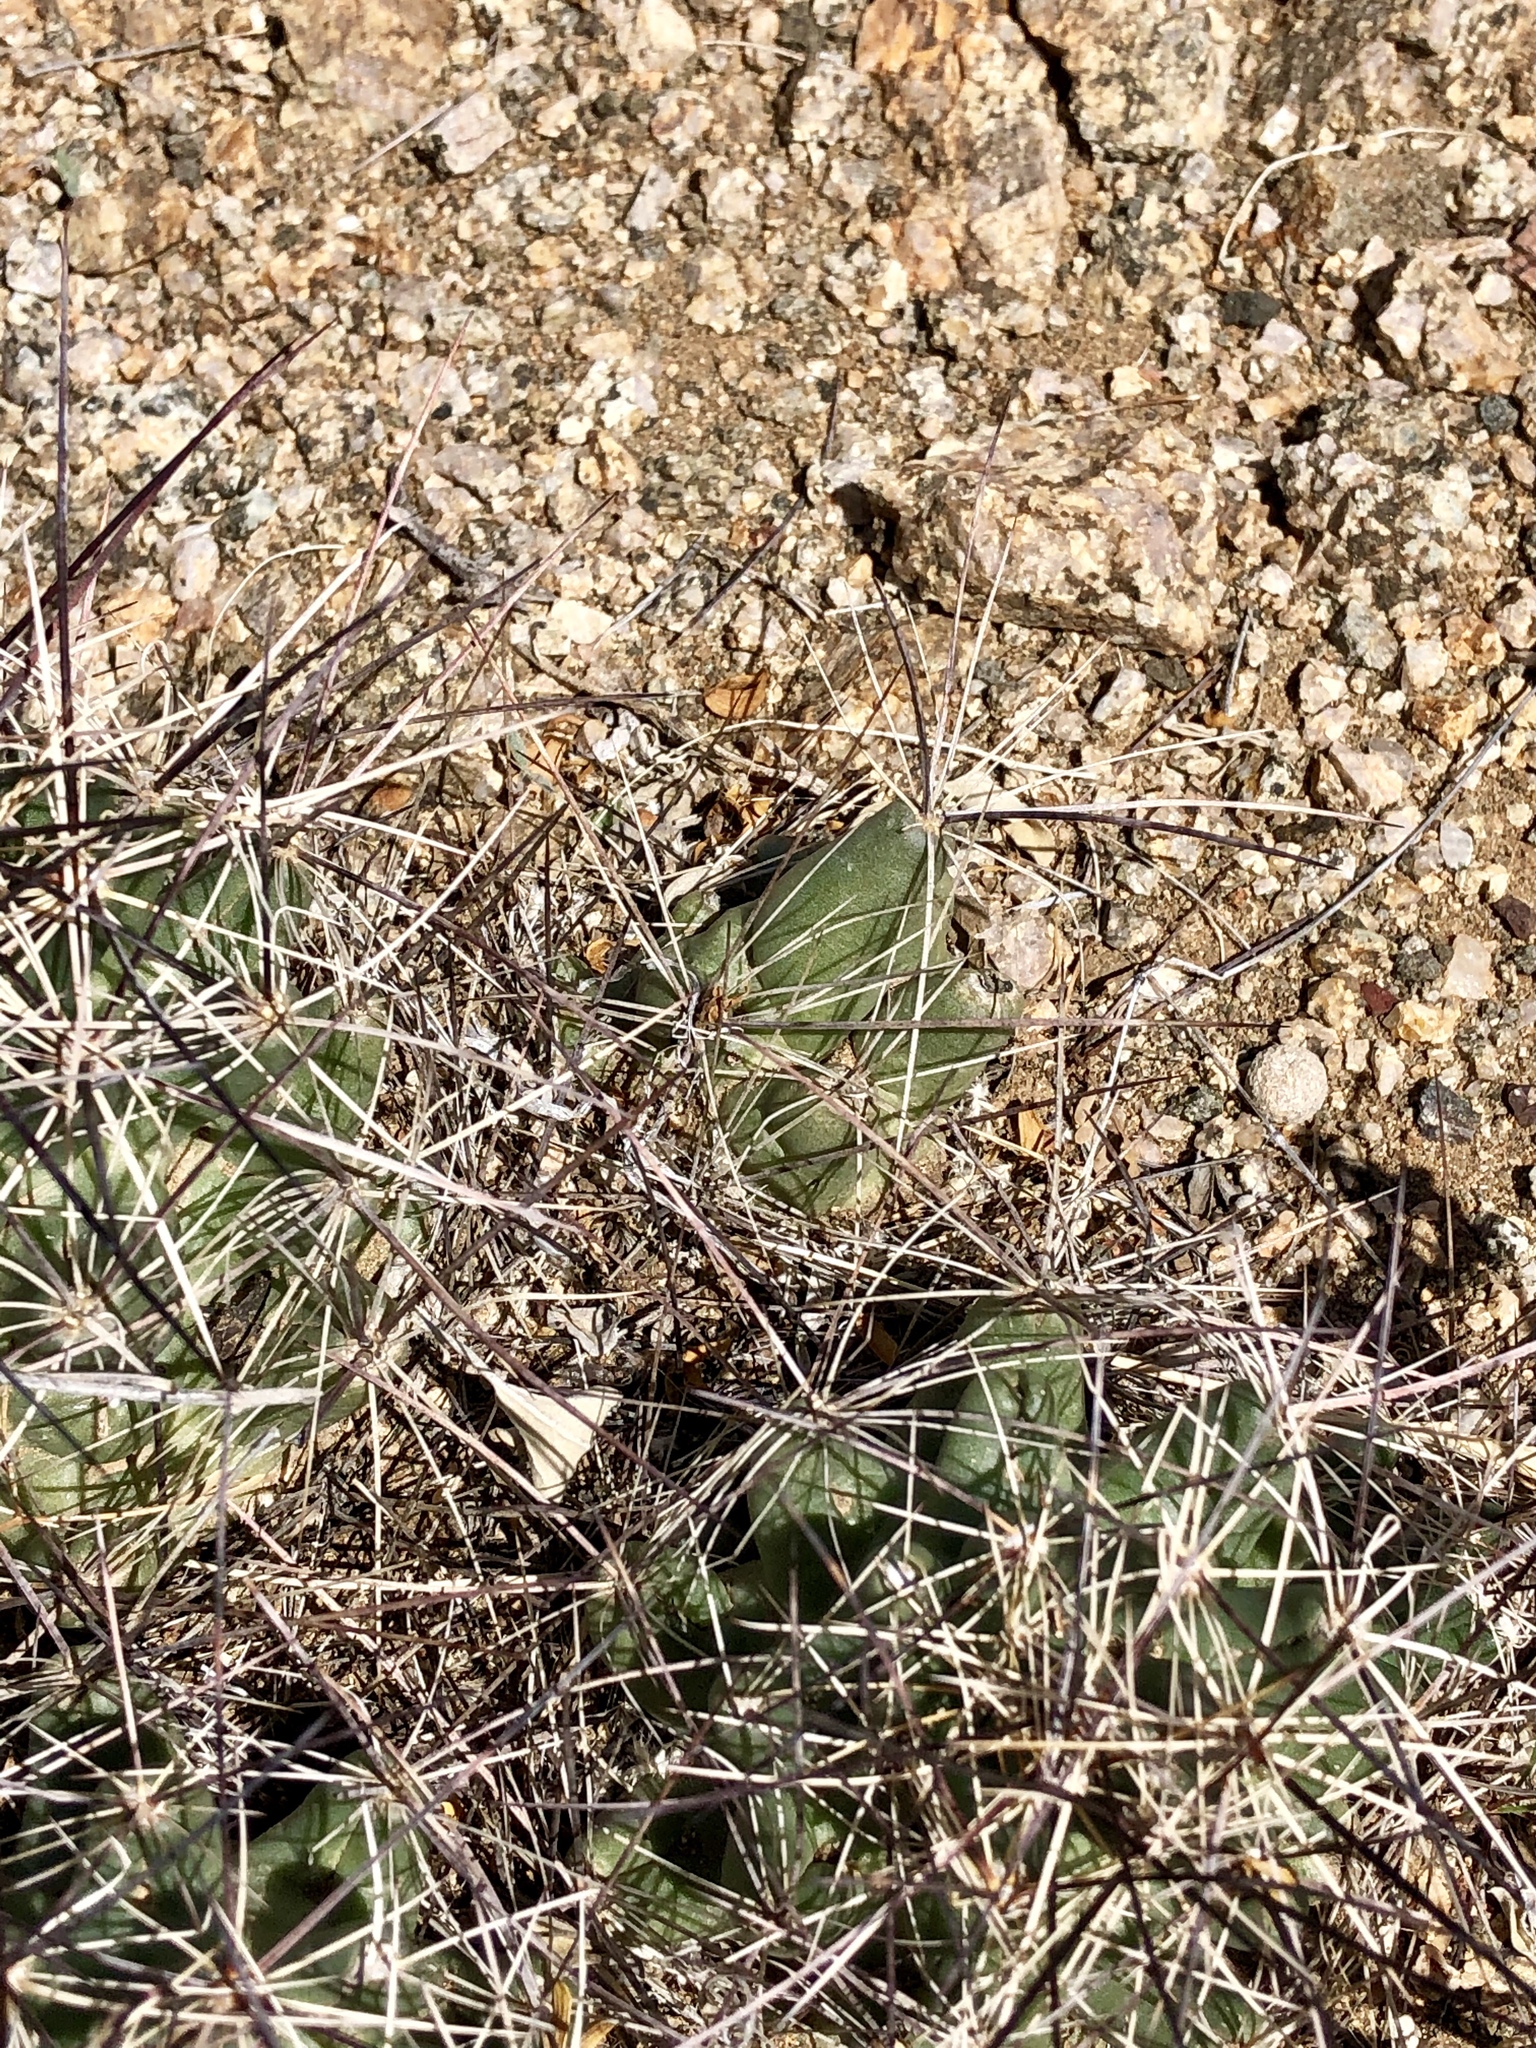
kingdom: Plantae
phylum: Tracheophyta
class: Magnoliopsida
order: Caryophyllales
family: Cactaceae
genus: Coryphantha
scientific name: Coryphantha macromeris
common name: Nipple beehive cactus
